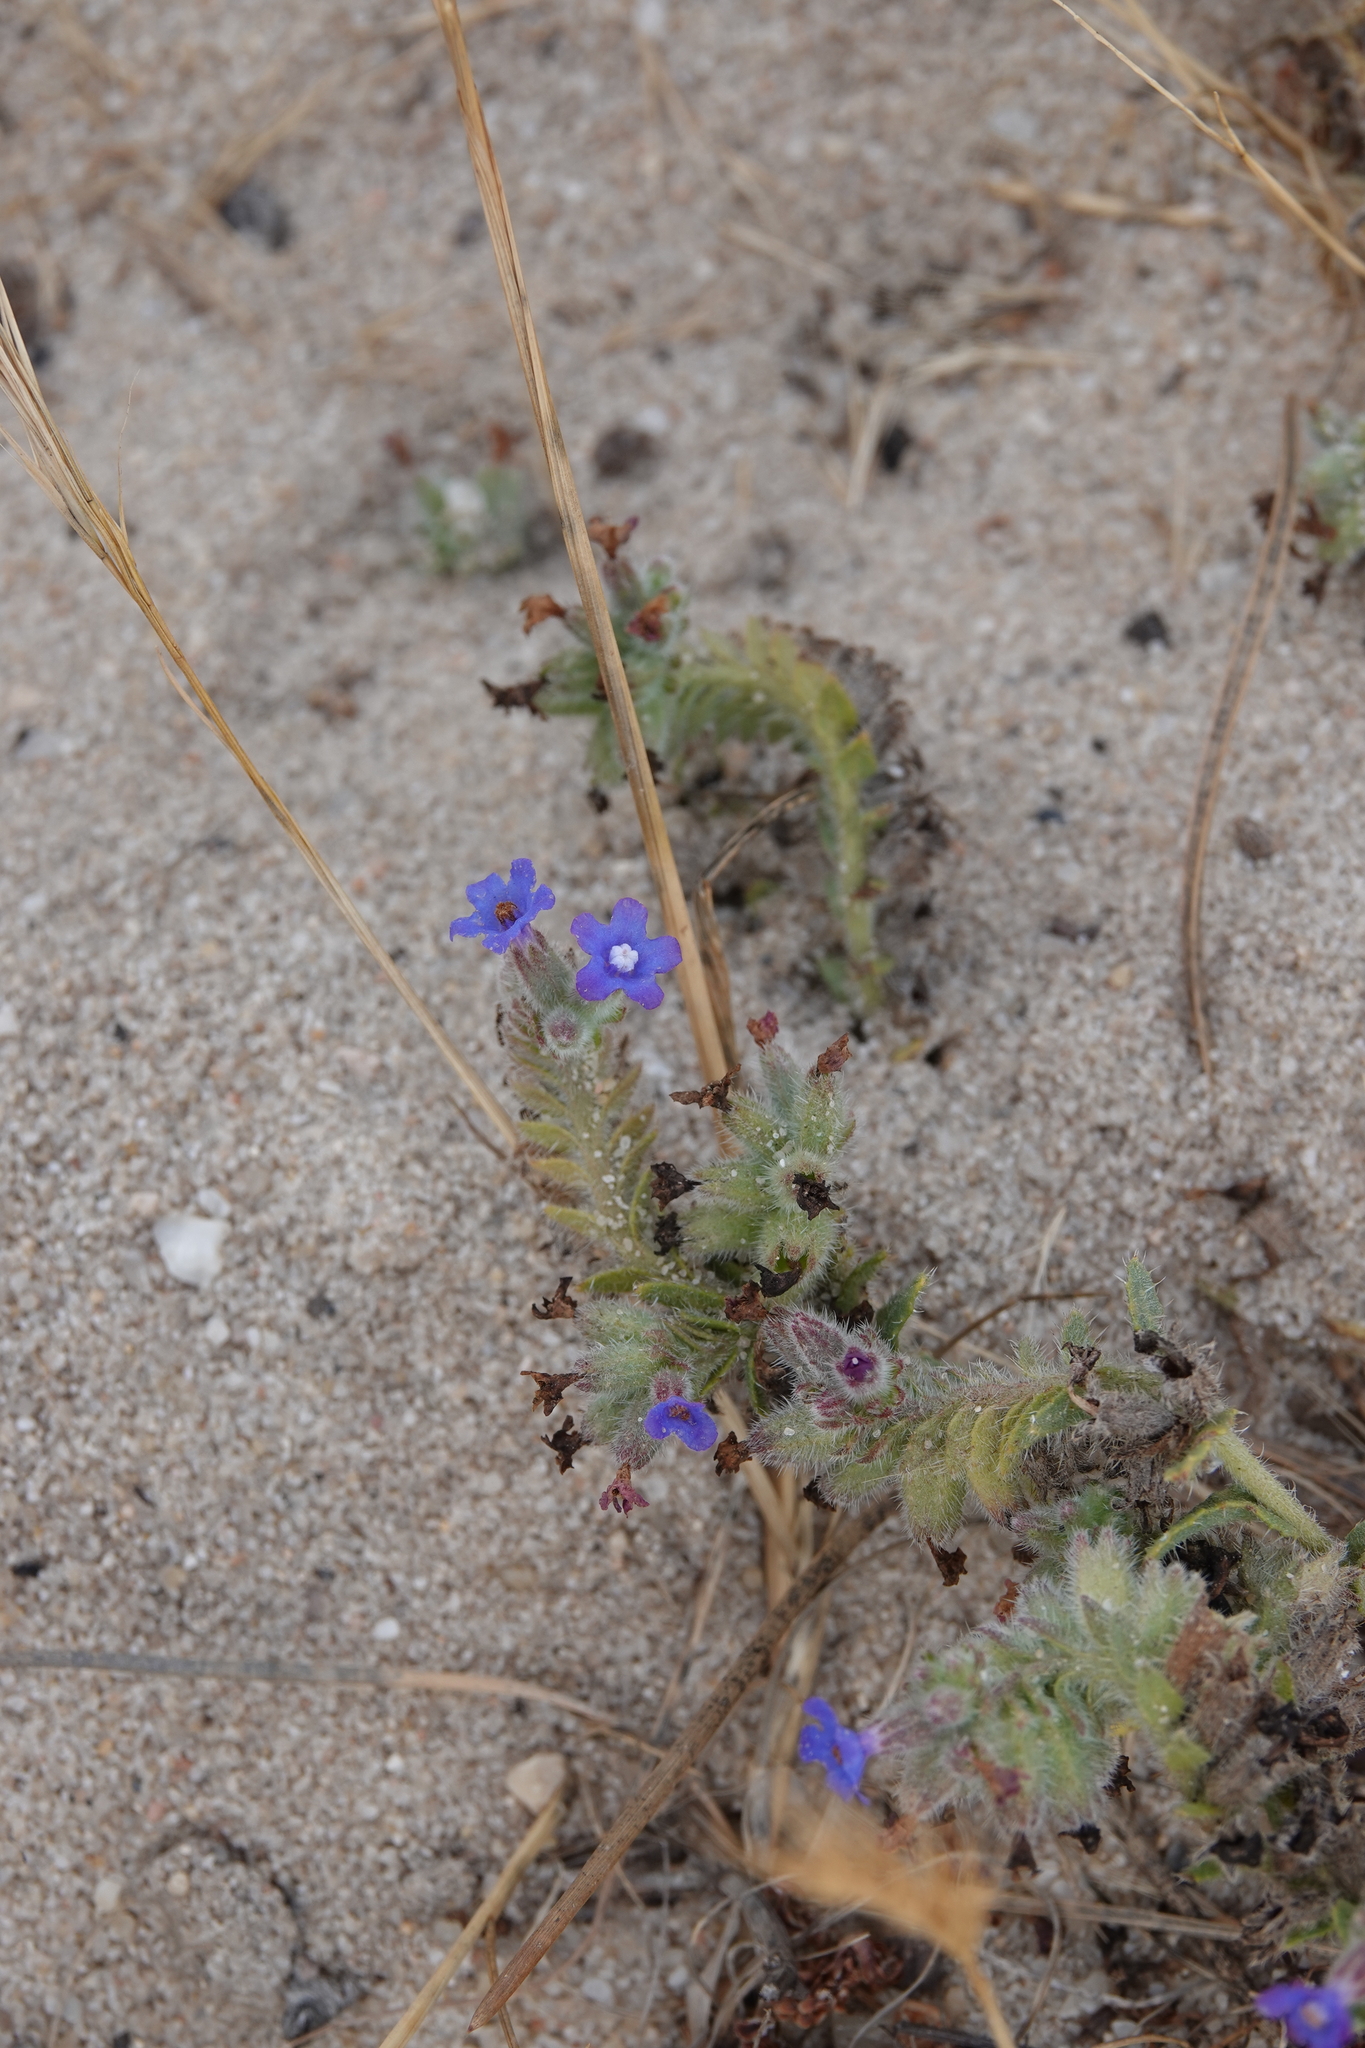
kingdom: Plantae
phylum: Tracheophyta
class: Magnoliopsida
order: Boraginales
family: Boraginaceae
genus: Anchusa
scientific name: Anchusa calcarea
